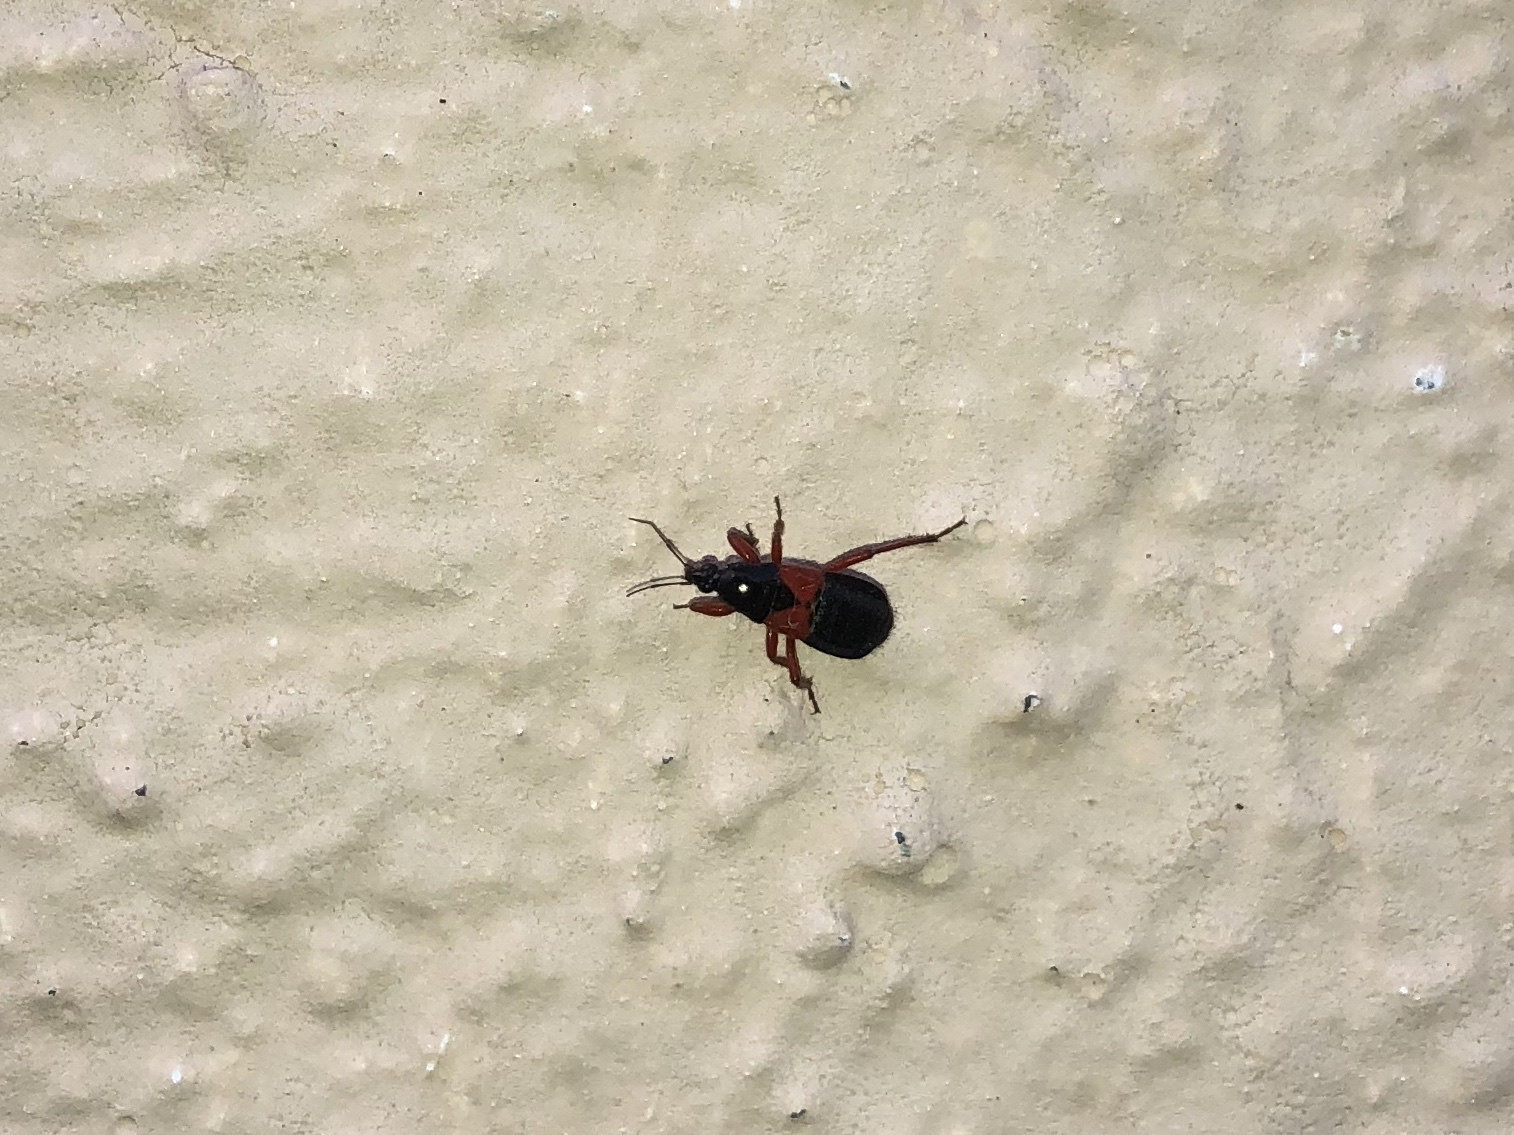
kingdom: Animalia
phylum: Arthropoda
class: Insecta
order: Hemiptera
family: Nabidae
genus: Prostemma
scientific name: Prostemma guttula
